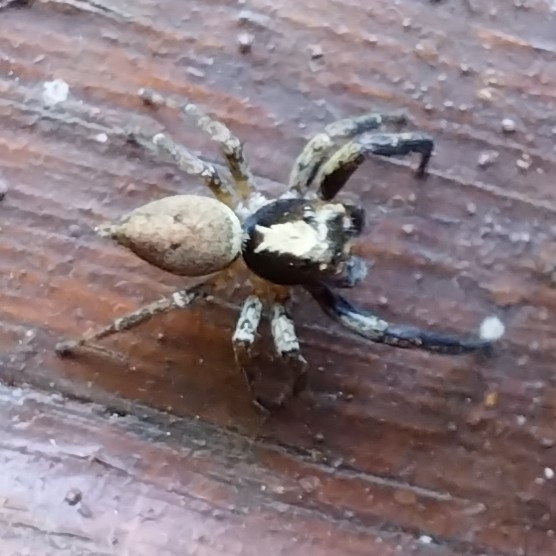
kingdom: Animalia
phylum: Arthropoda
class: Arachnida
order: Araneae
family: Salticidae
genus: Asaphobelis
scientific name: Asaphobelis physonychus
